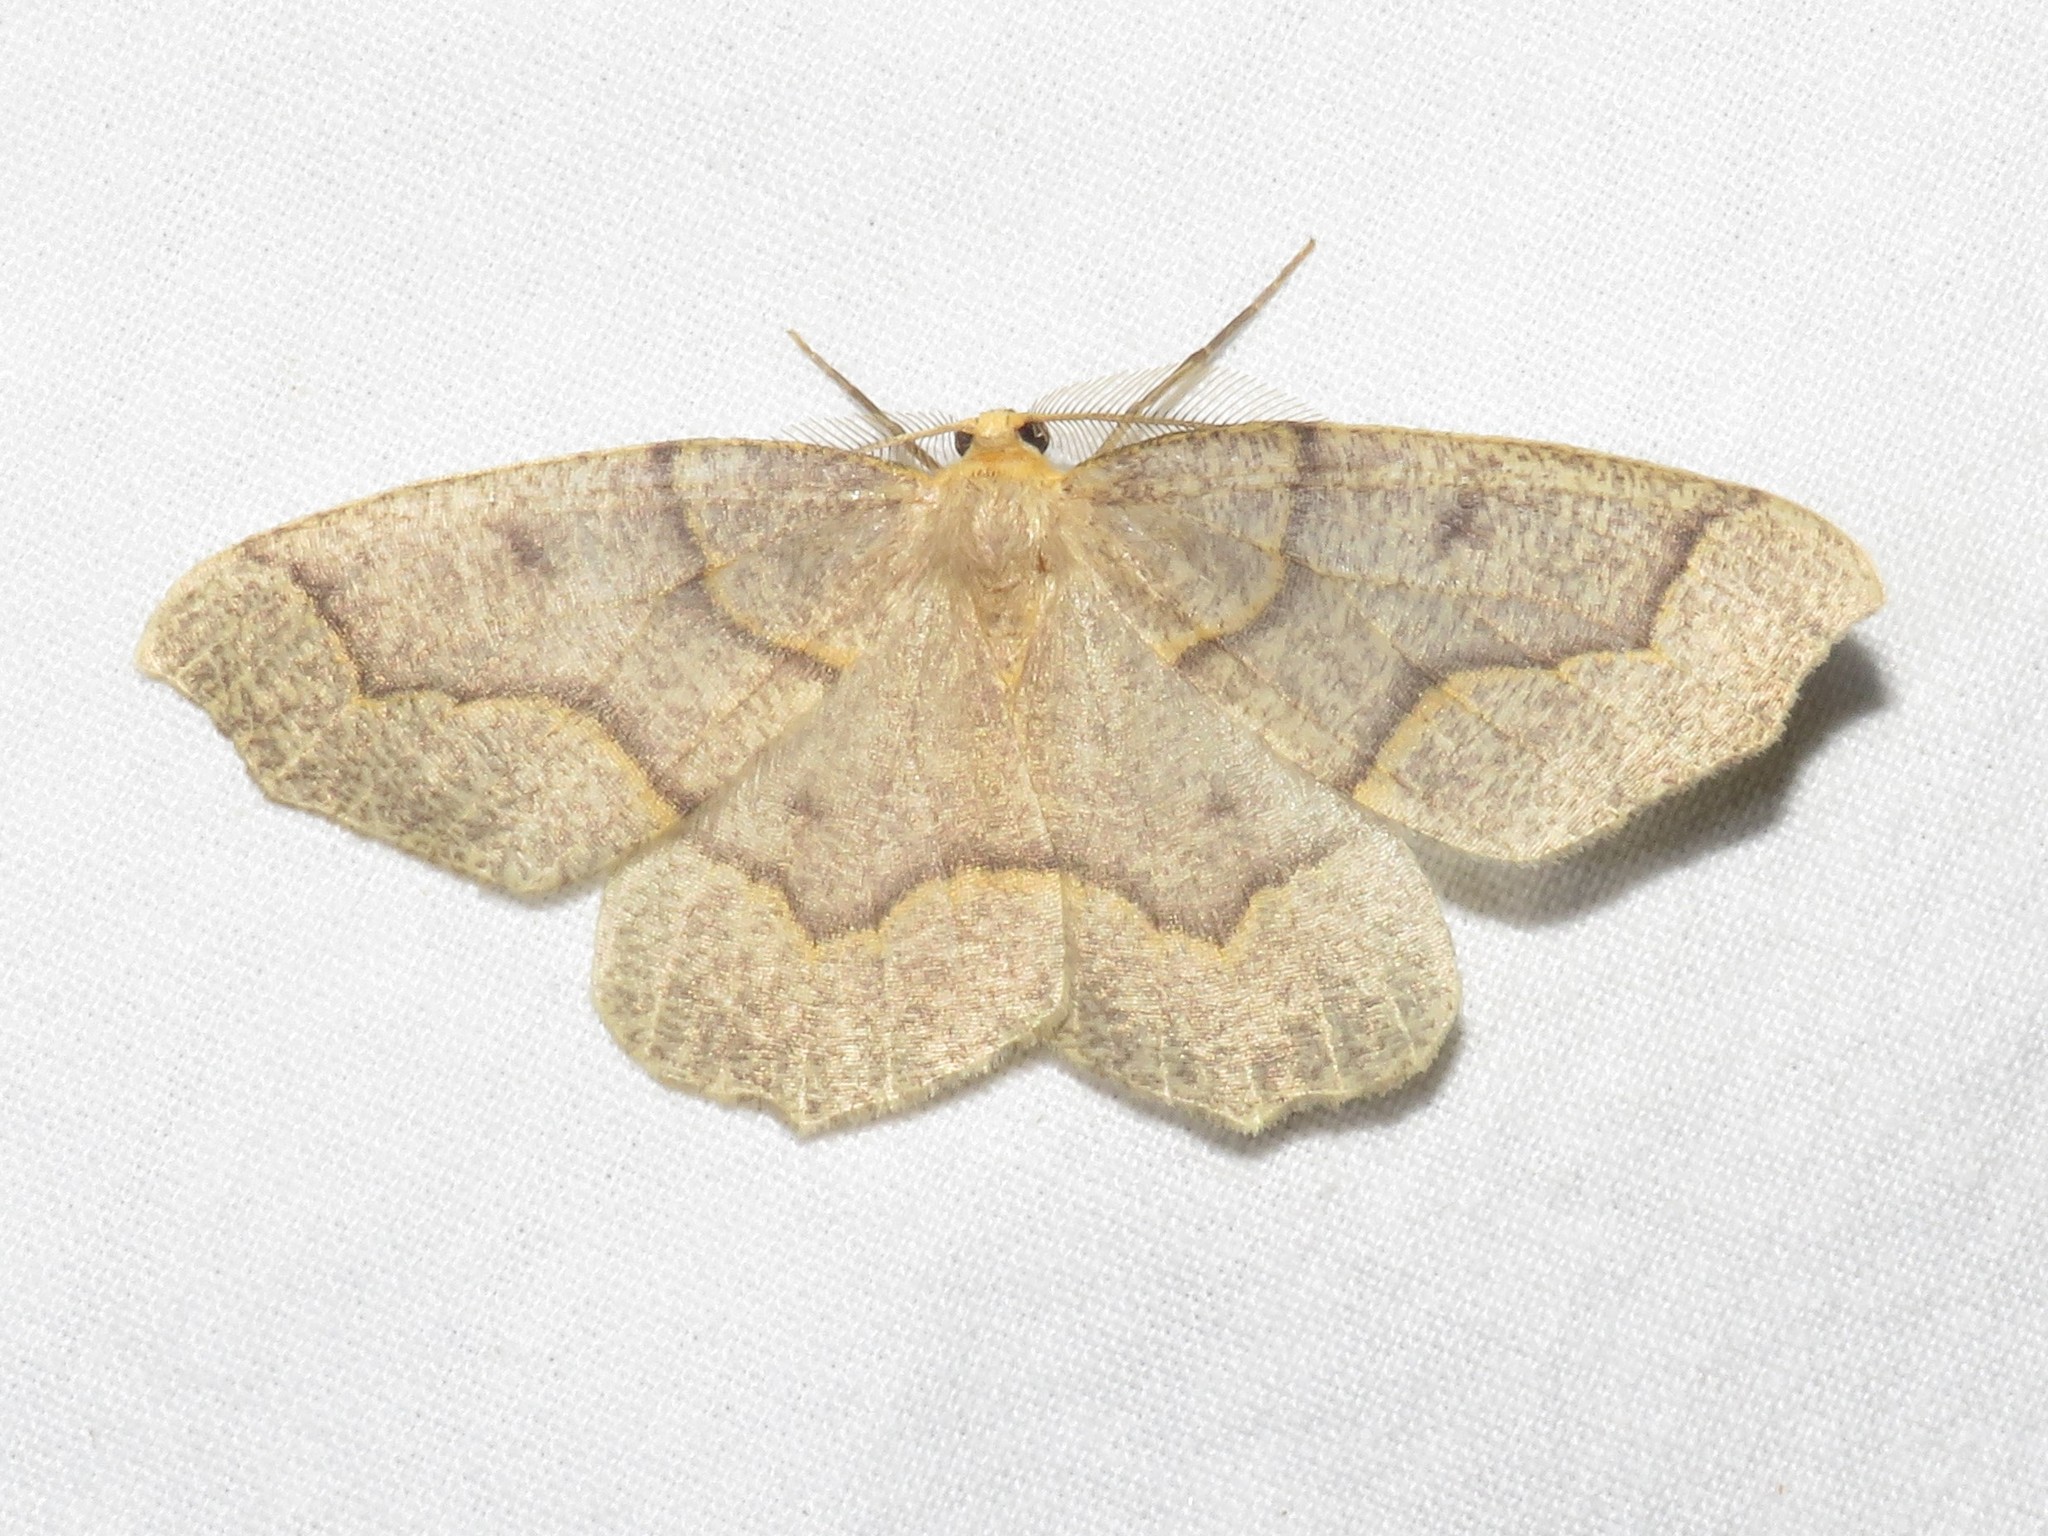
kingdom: Animalia
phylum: Arthropoda
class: Insecta
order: Lepidoptera
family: Geometridae
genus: Lambdina
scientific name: Lambdina fiscellaria
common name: Hemlock looper
